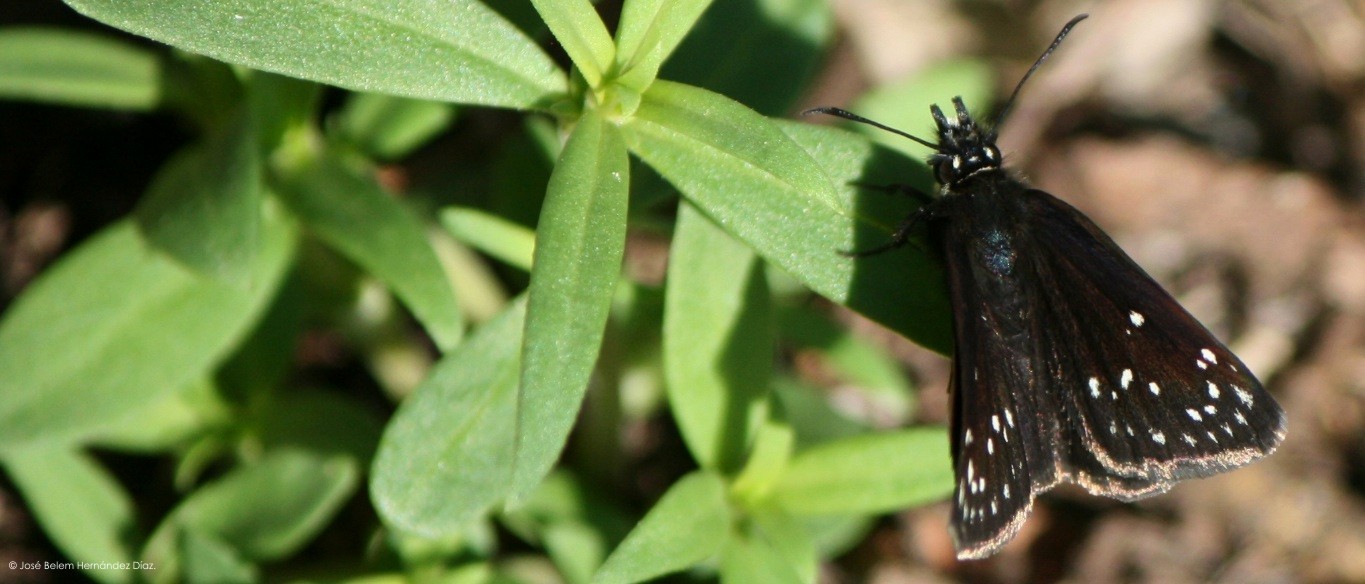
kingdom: Animalia
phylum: Arthropoda
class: Insecta
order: Lepidoptera
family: Hesperiidae
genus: Pholisora
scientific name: Pholisora mejicanus
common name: Mexican sootywing
